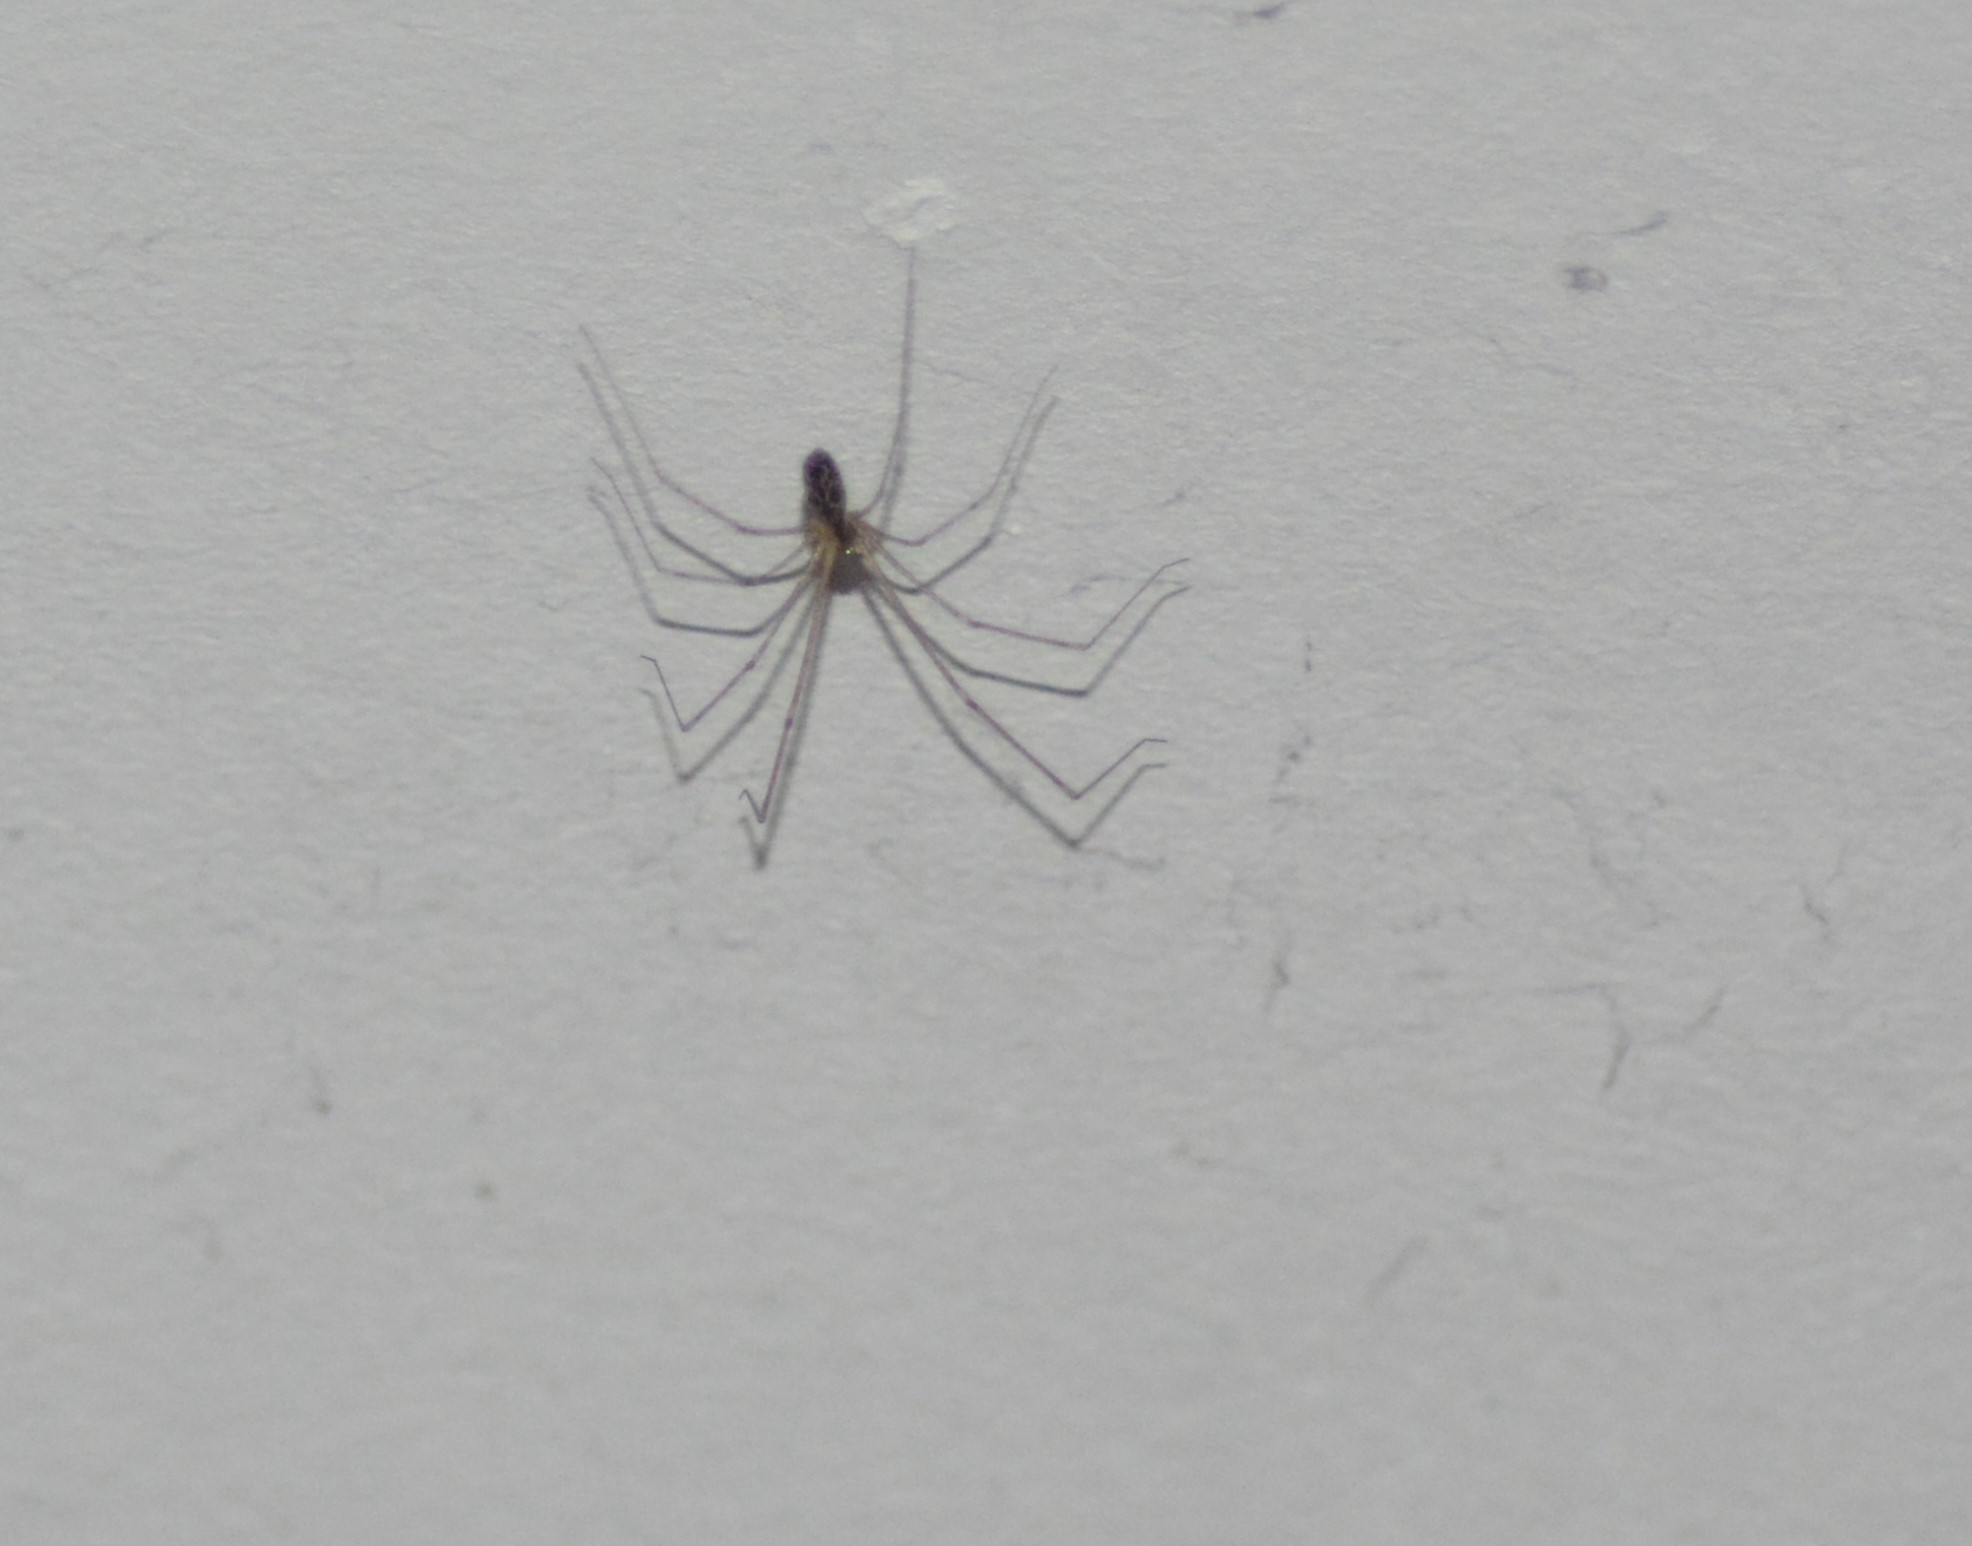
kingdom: Animalia
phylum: Arthropoda
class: Arachnida
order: Araneae
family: Pholcidae
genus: Holocnemus
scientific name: Holocnemus pluchei
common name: Marbled cellar spider
